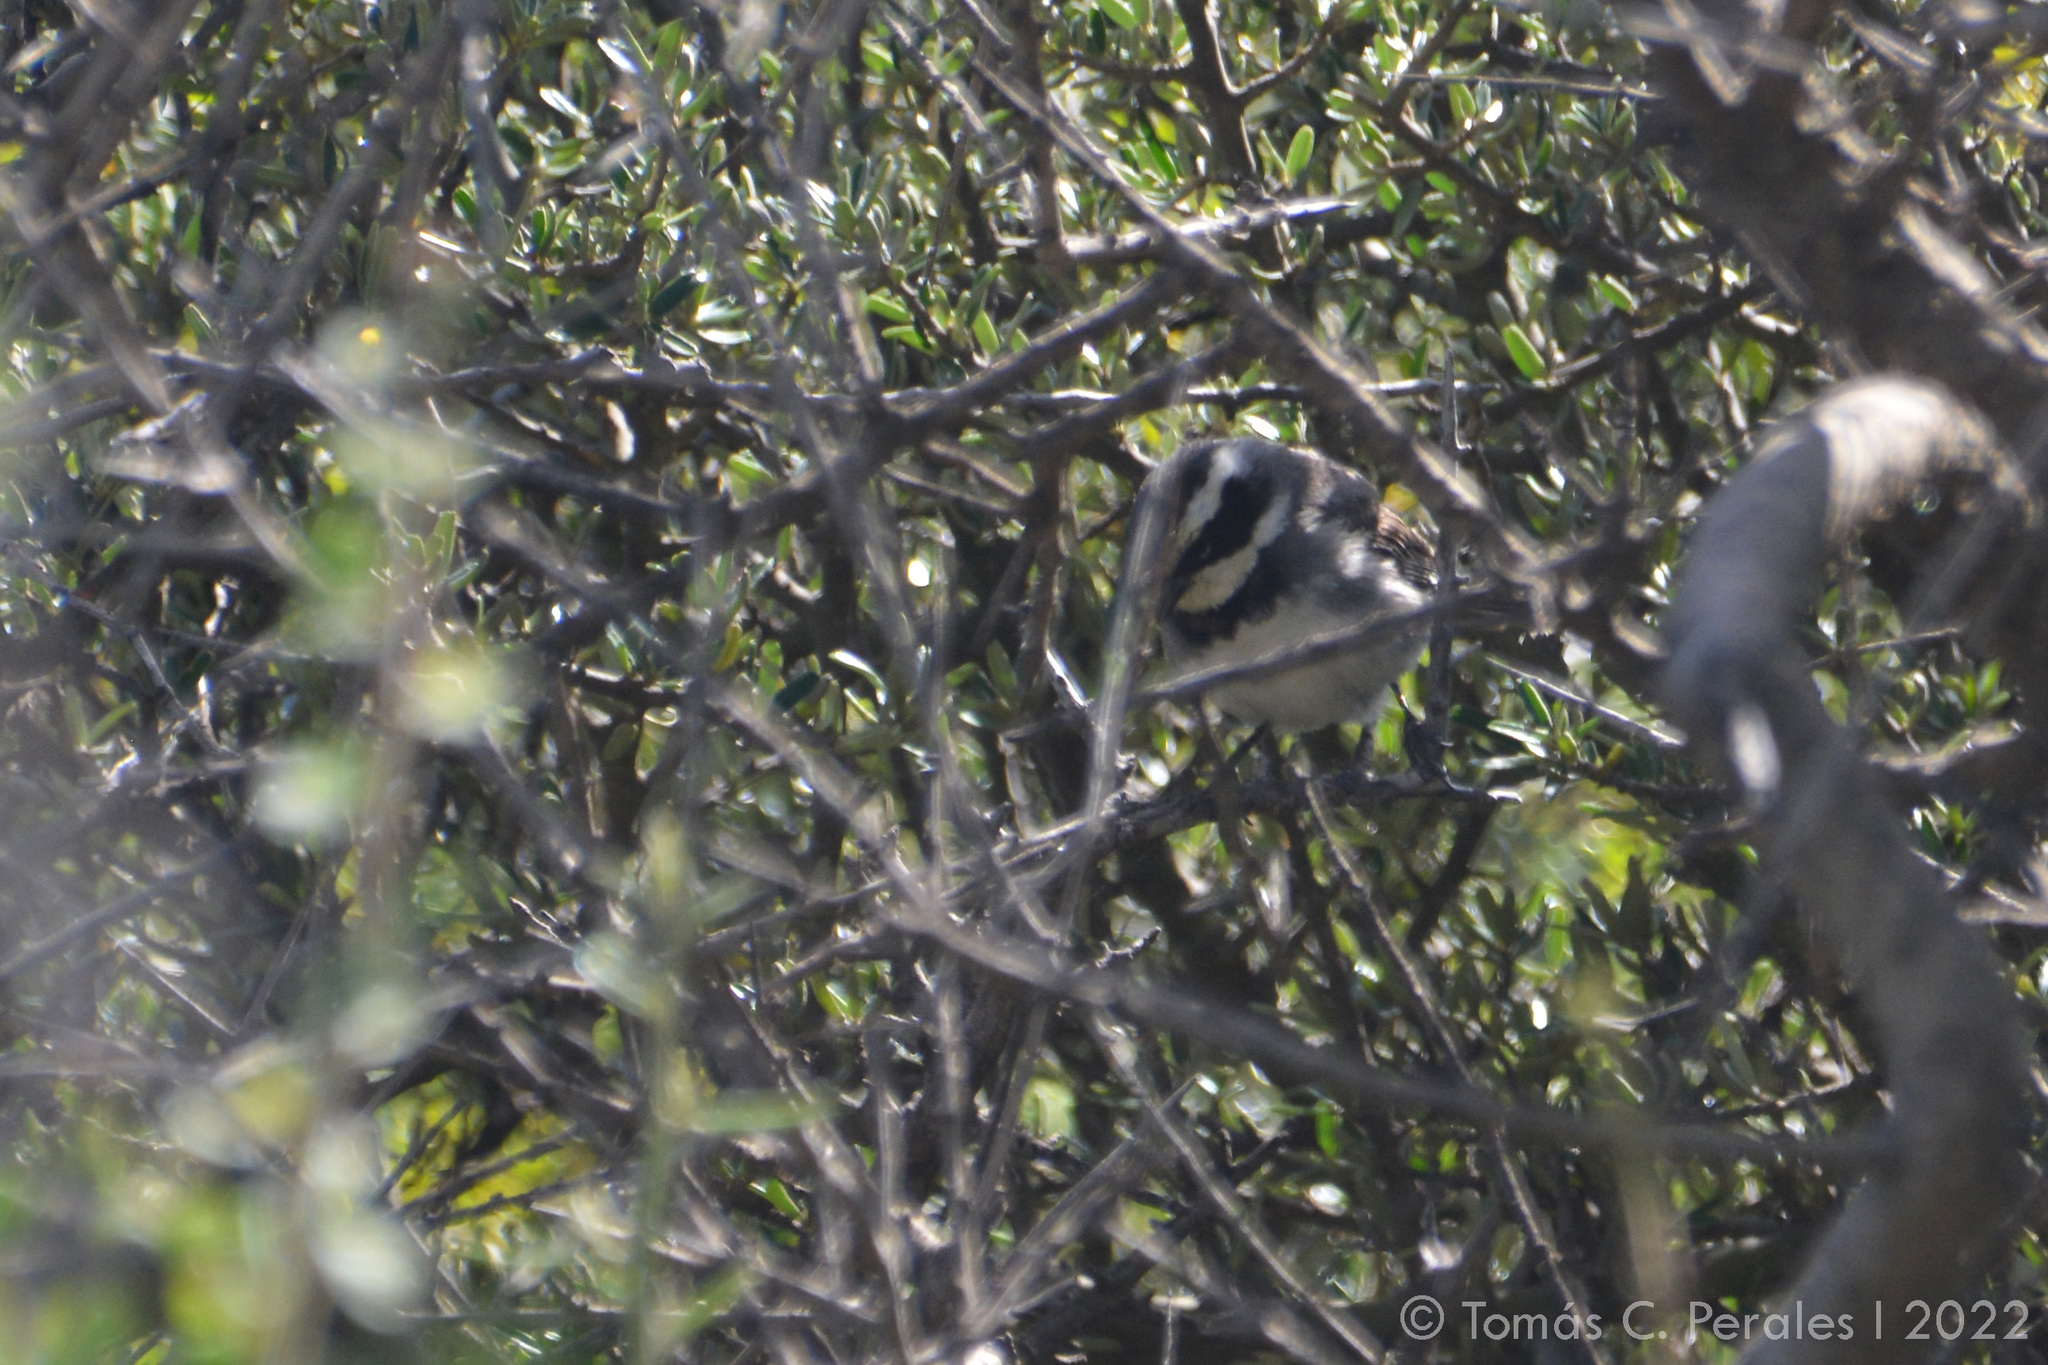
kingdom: Animalia
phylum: Chordata
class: Aves
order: Passeriformes
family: Thraupidae
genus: Microspingus
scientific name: Microspingus torquatus
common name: Ringed warbling-finch
